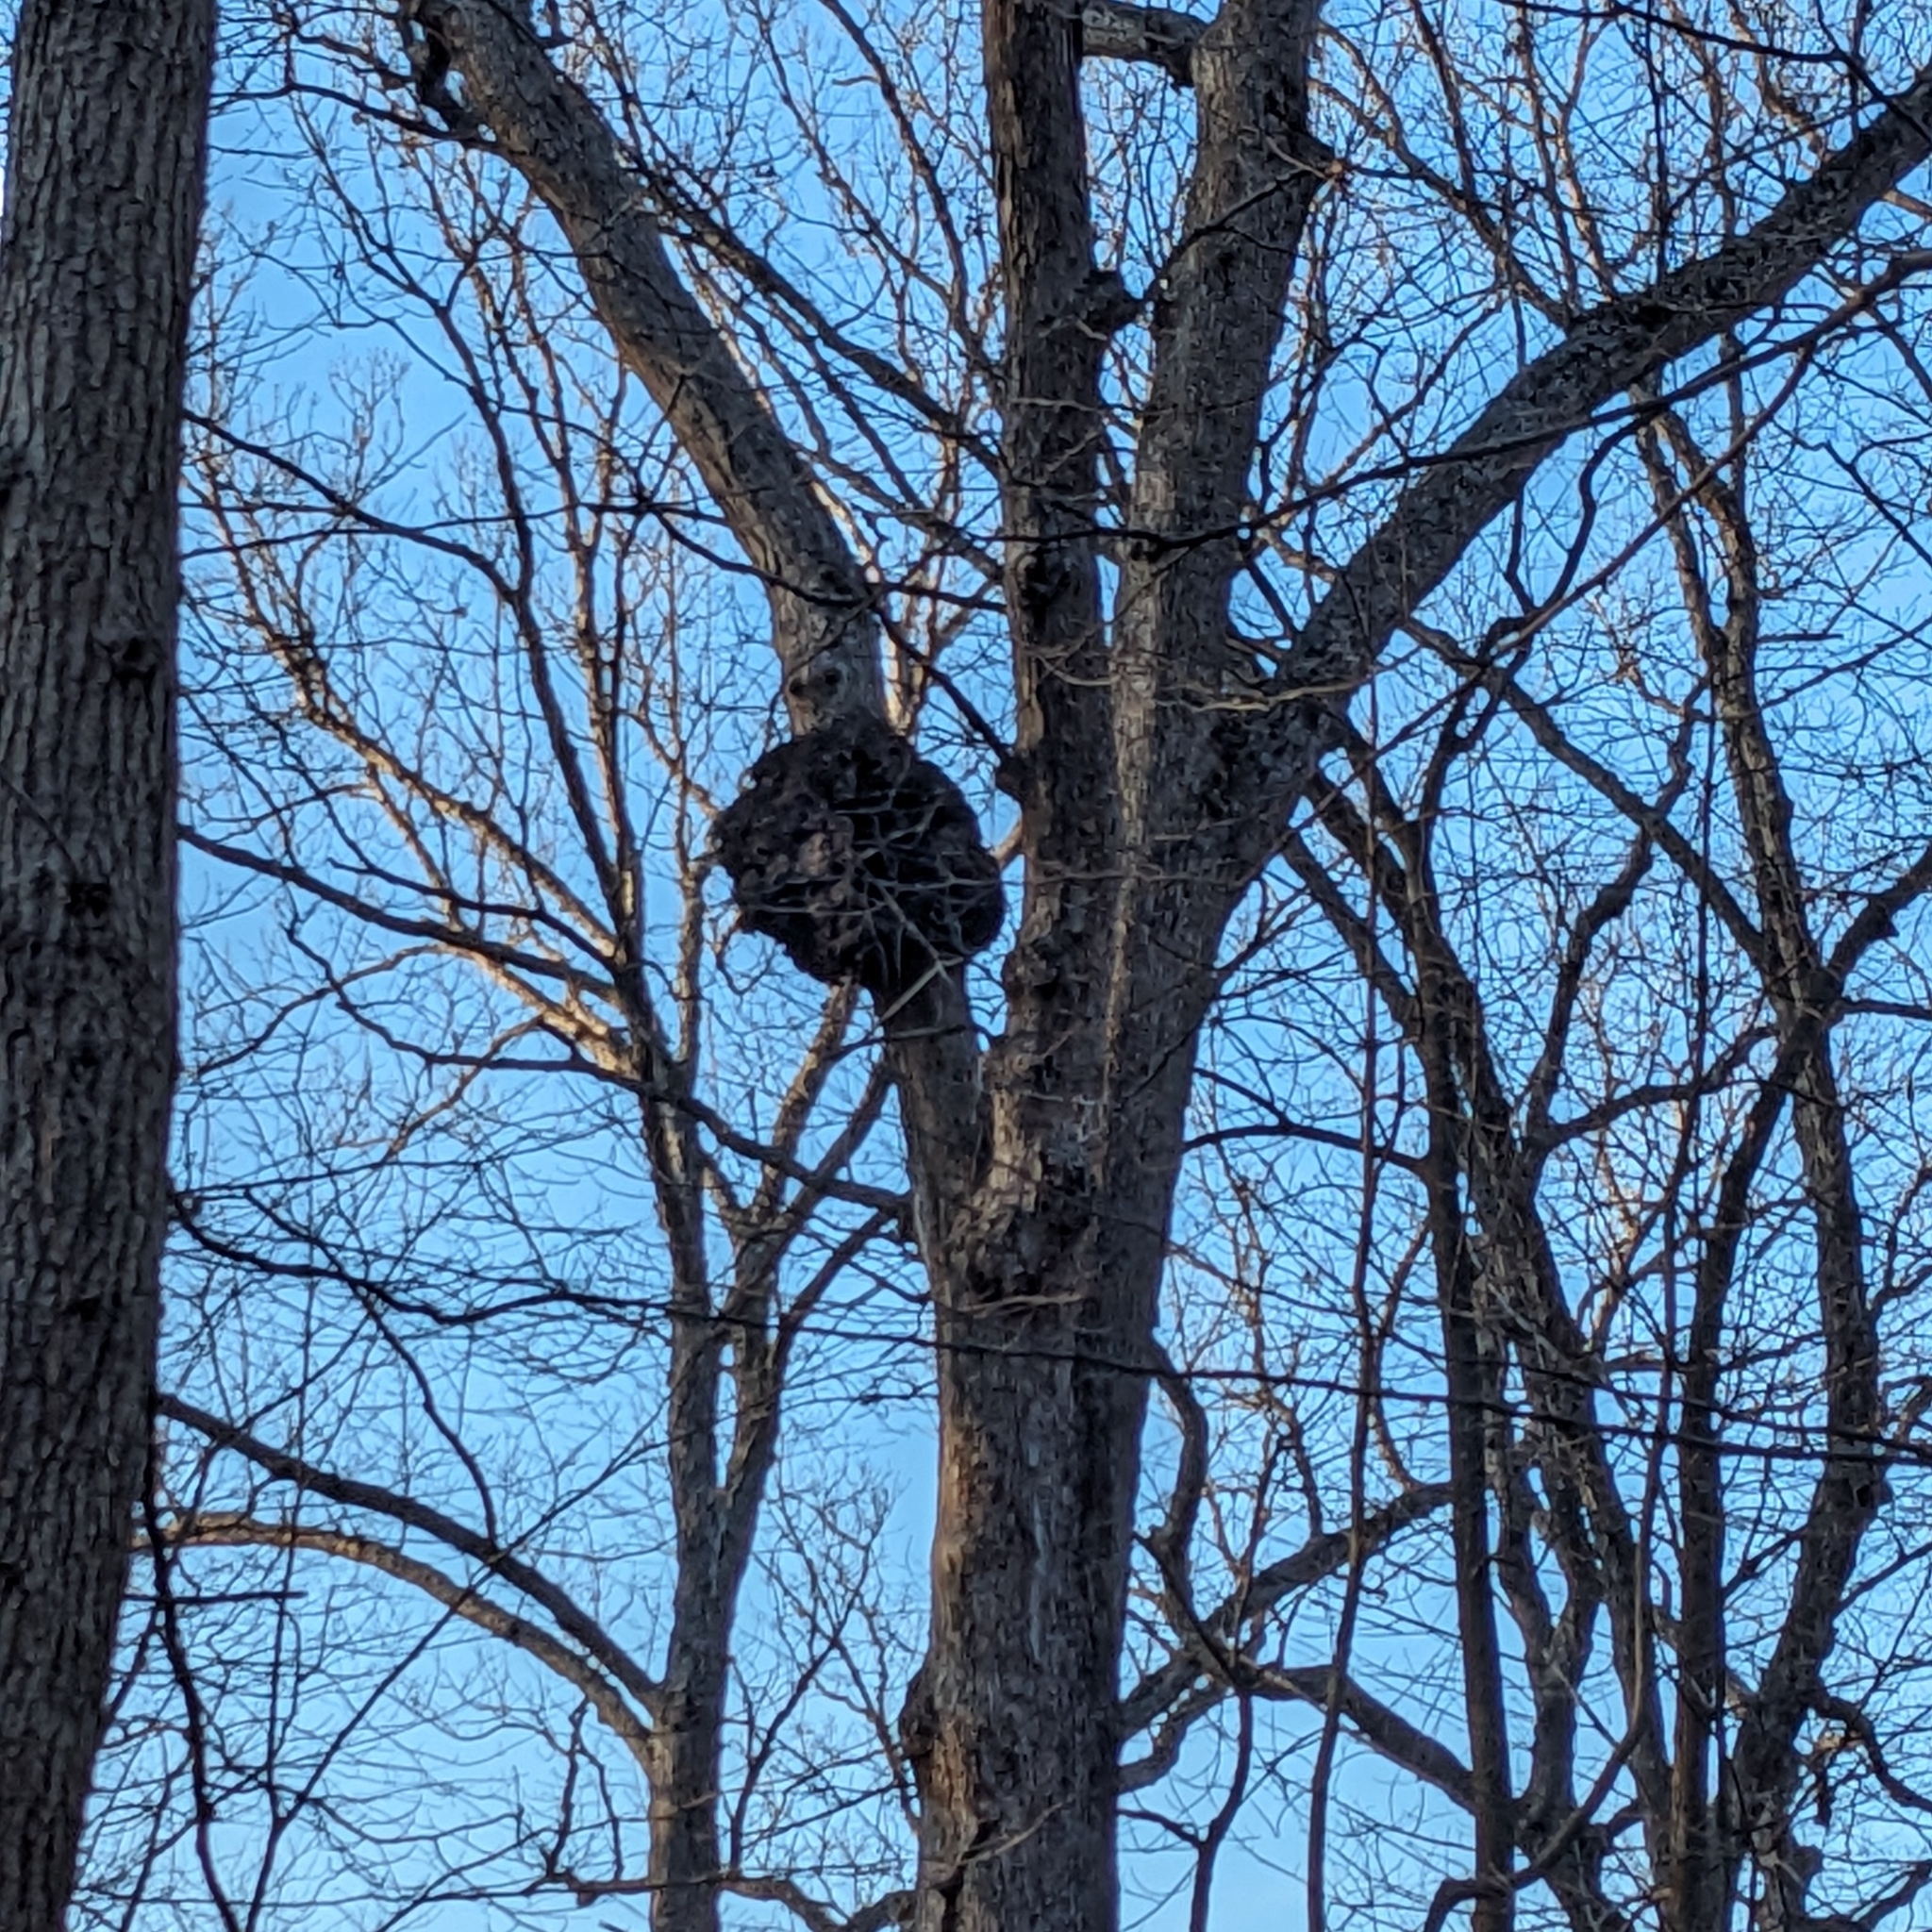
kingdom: Bacteria
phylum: Proteobacteria
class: Alphaproteobacteria
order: Rhizobiales
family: Rhizobiaceae
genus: Rhizobium
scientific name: Rhizobium Agrobacterium radiobacter
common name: Bacterial crown gall
